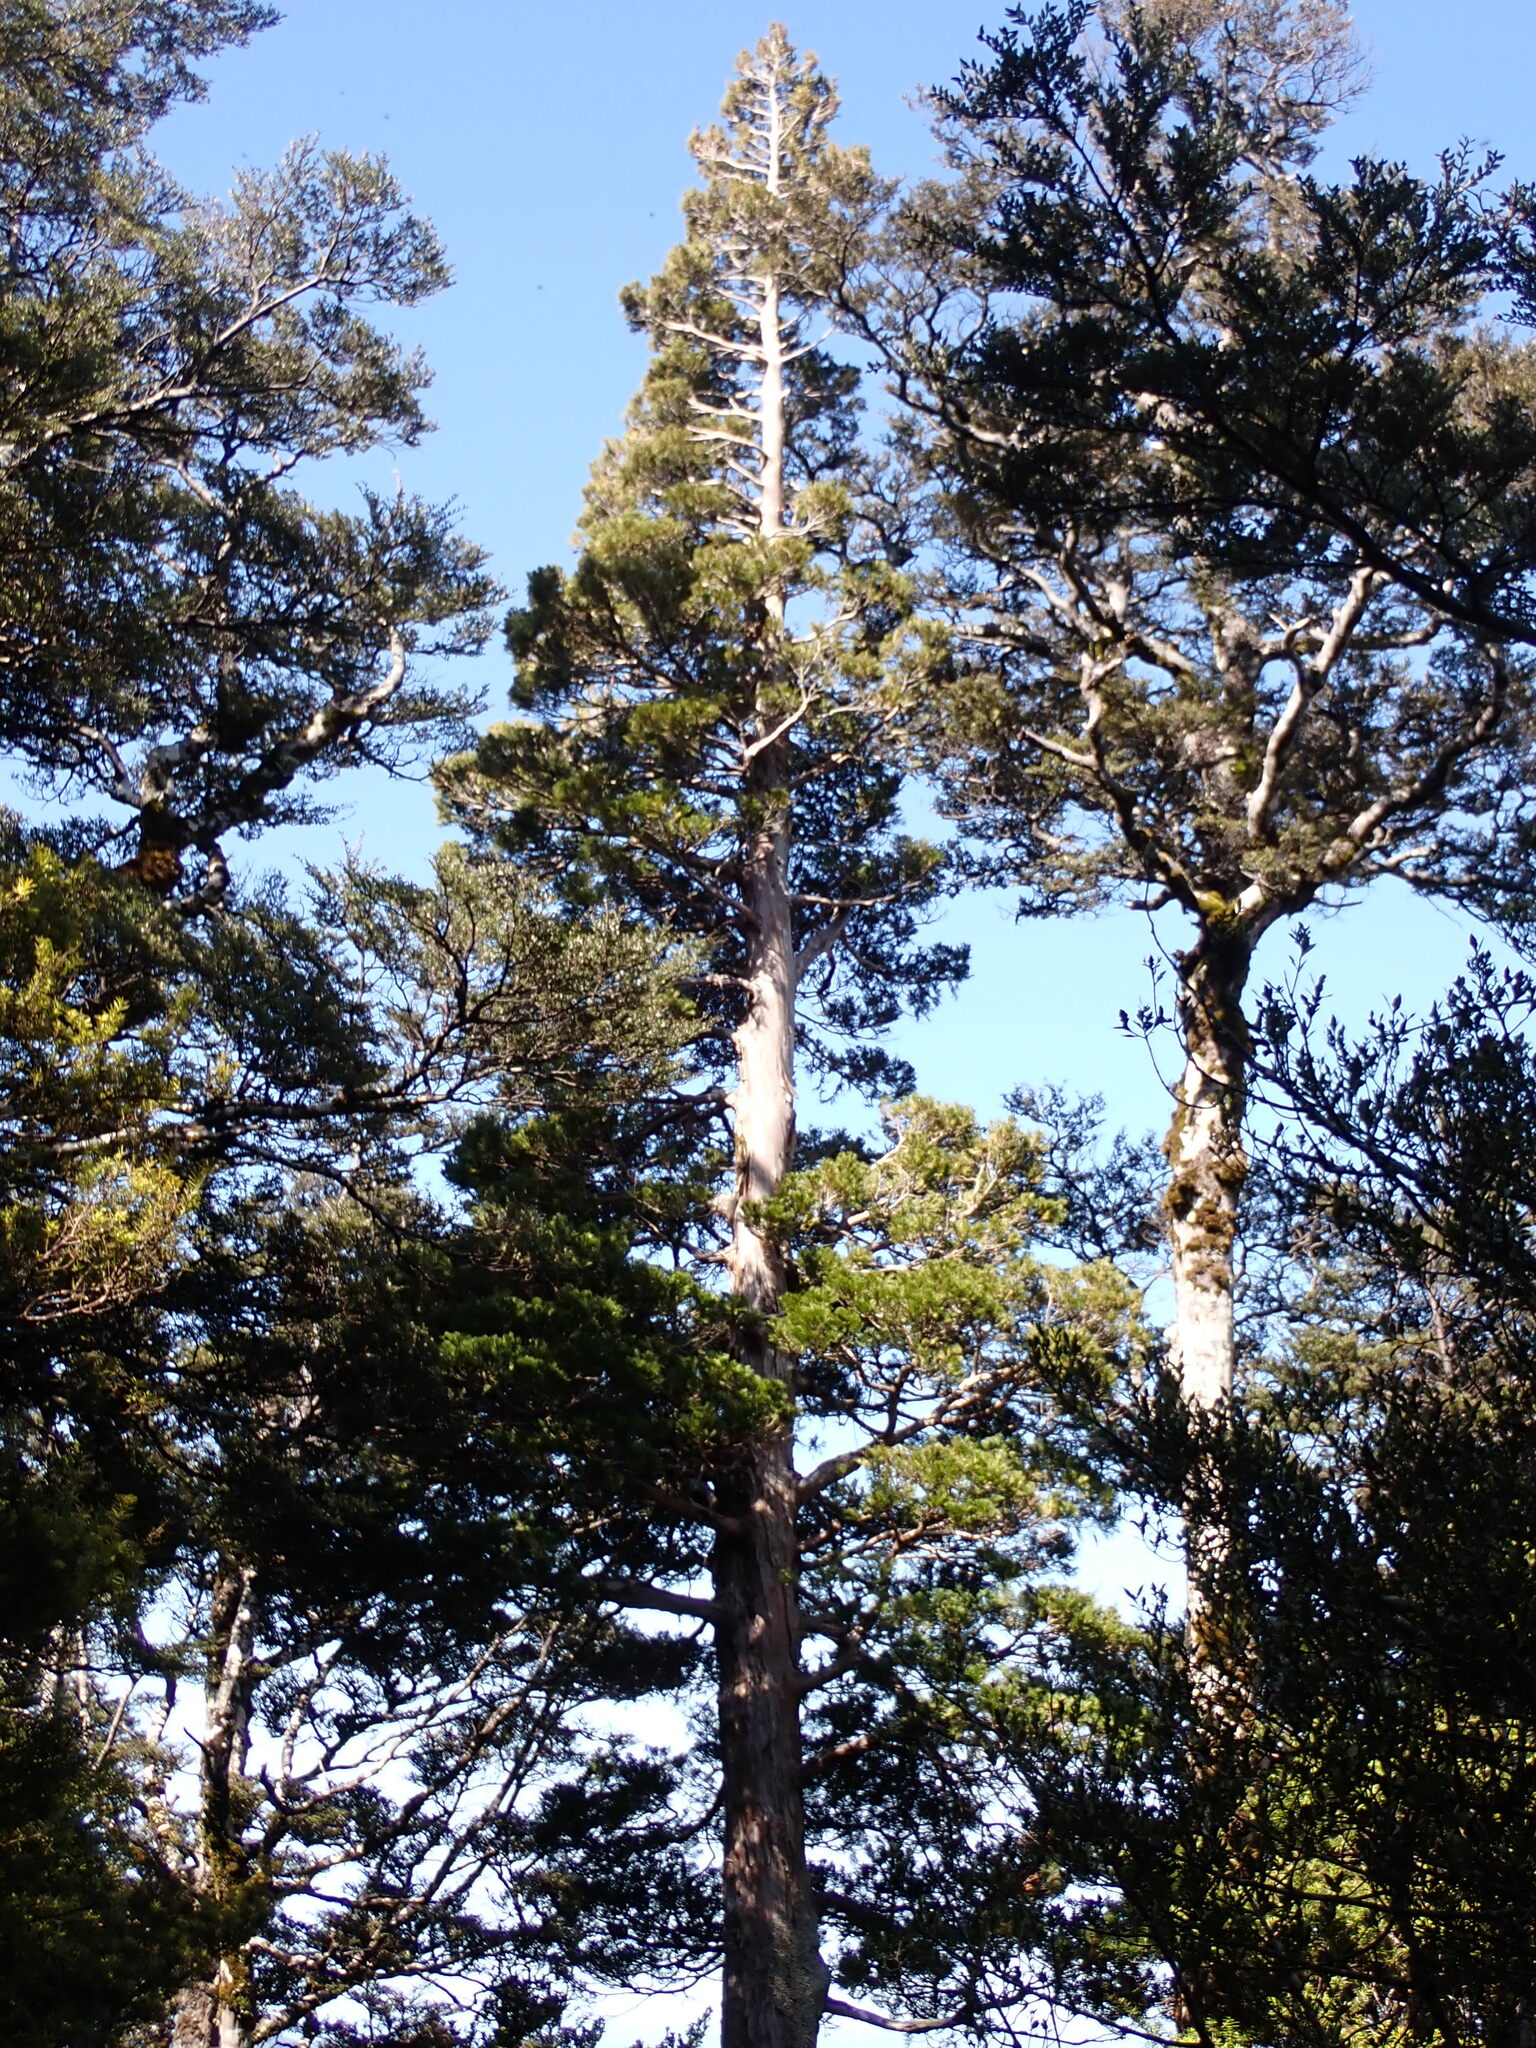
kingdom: Plantae
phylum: Tracheophyta
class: Pinopsida
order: Pinales
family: Cupressaceae
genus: Libocedrus
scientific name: Libocedrus bidwillii
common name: Cedar
